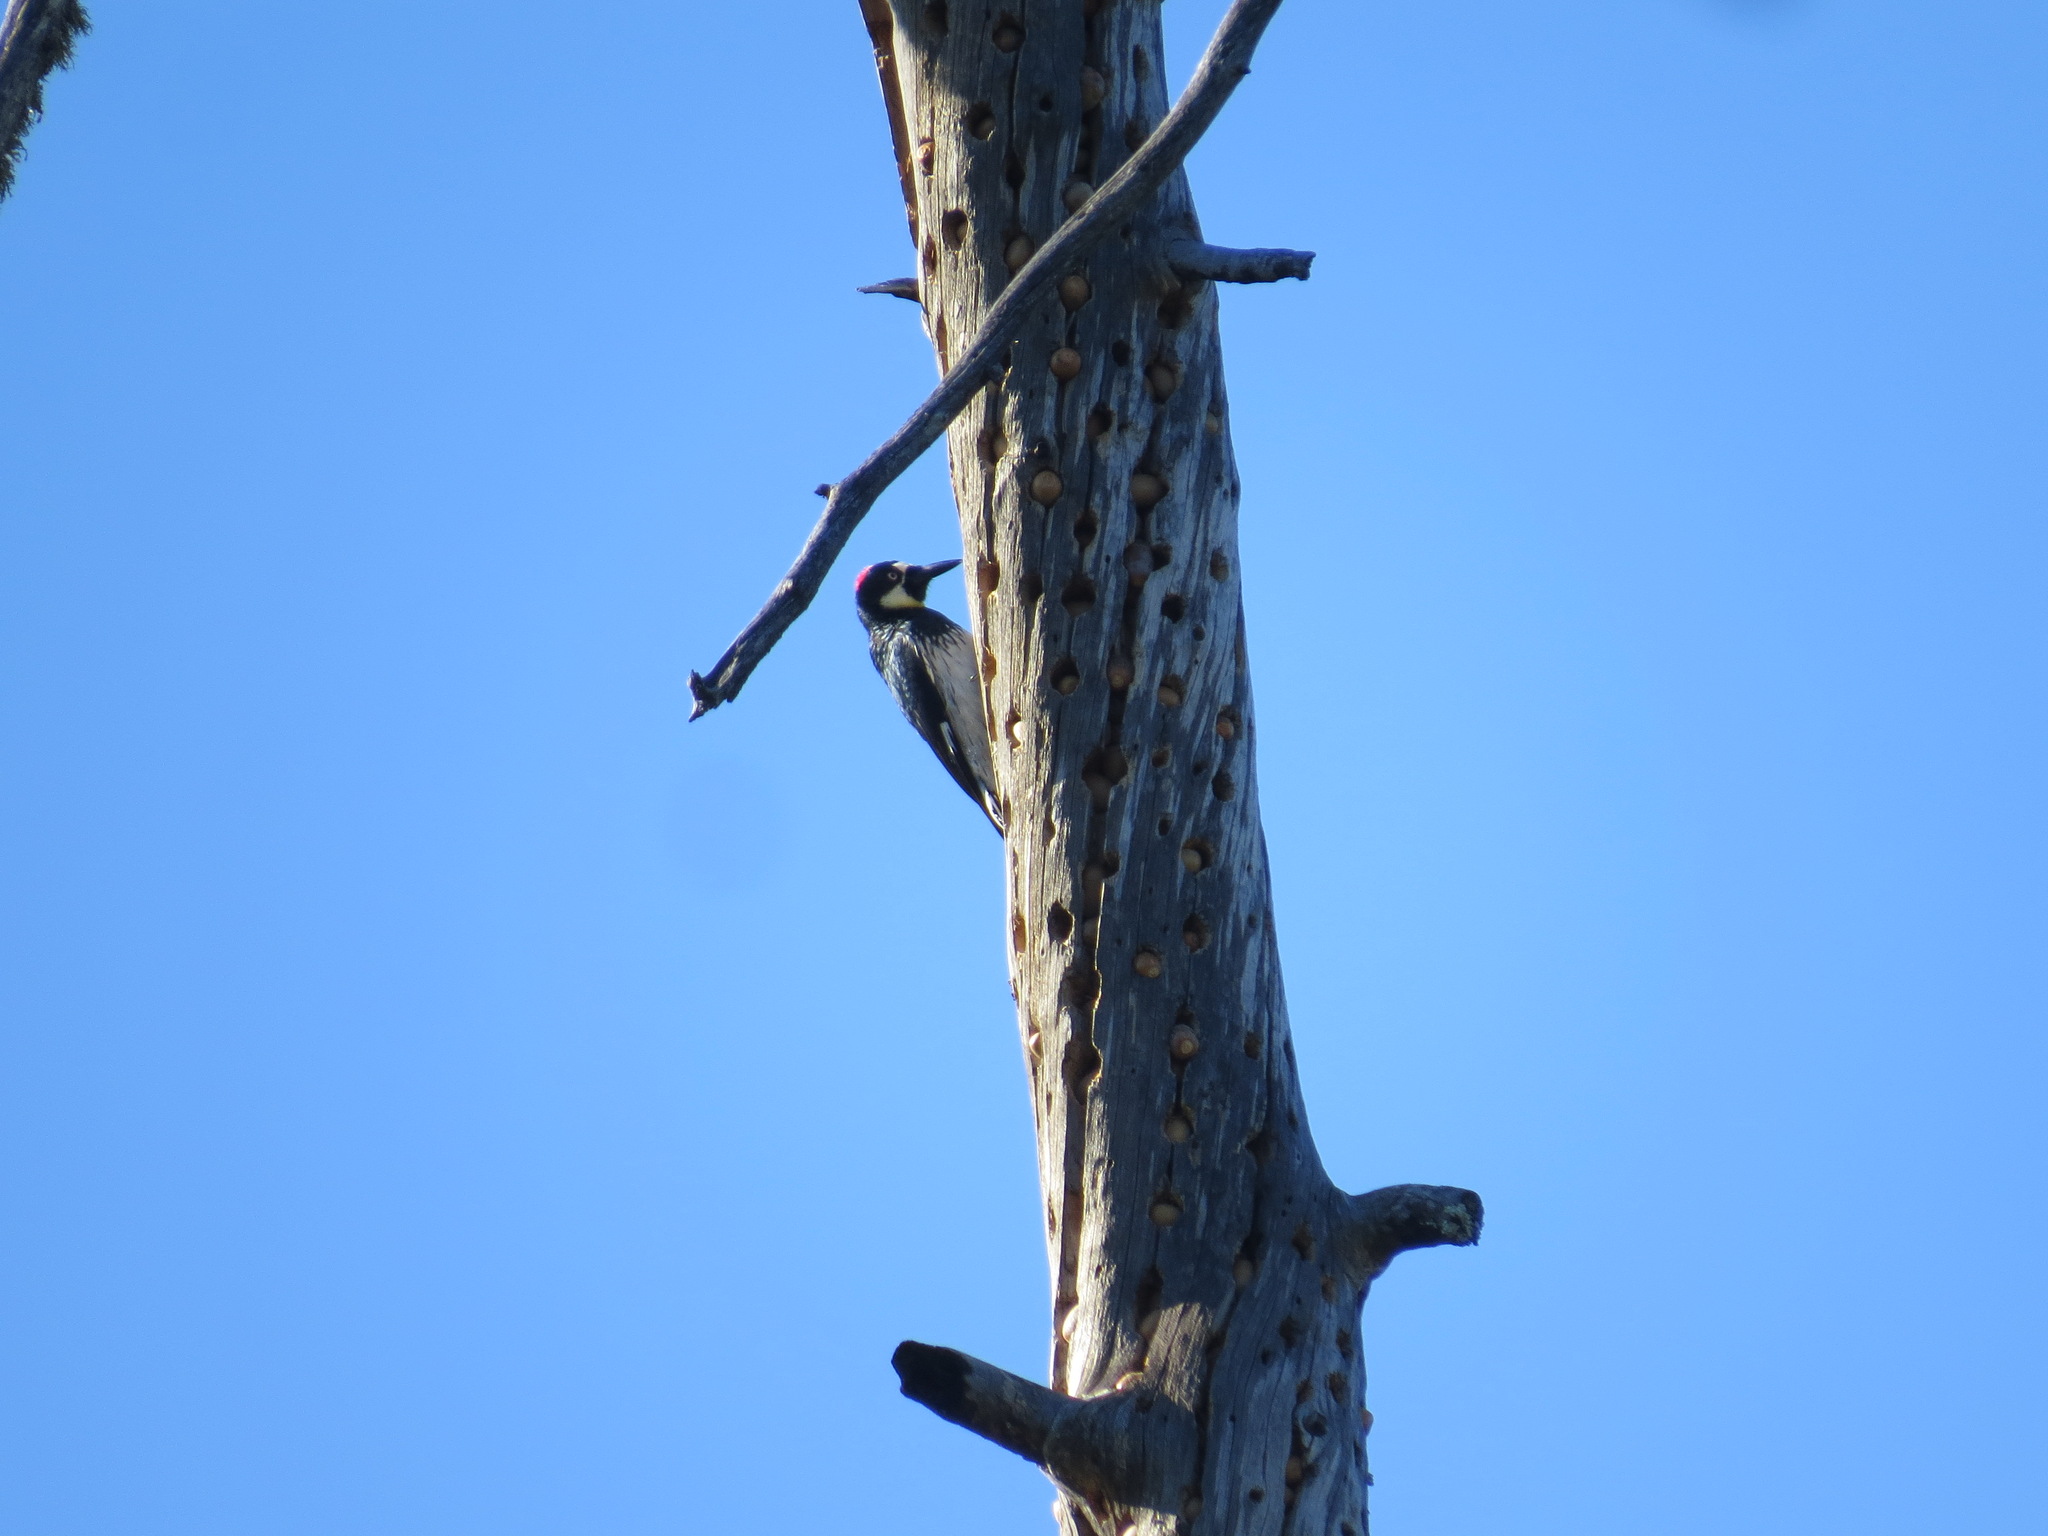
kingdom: Animalia
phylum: Chordata
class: Aves
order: Piciformes
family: Picidae
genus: Melanerpes
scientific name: Melanerpes formicivorus
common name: Acorn woodpecker
